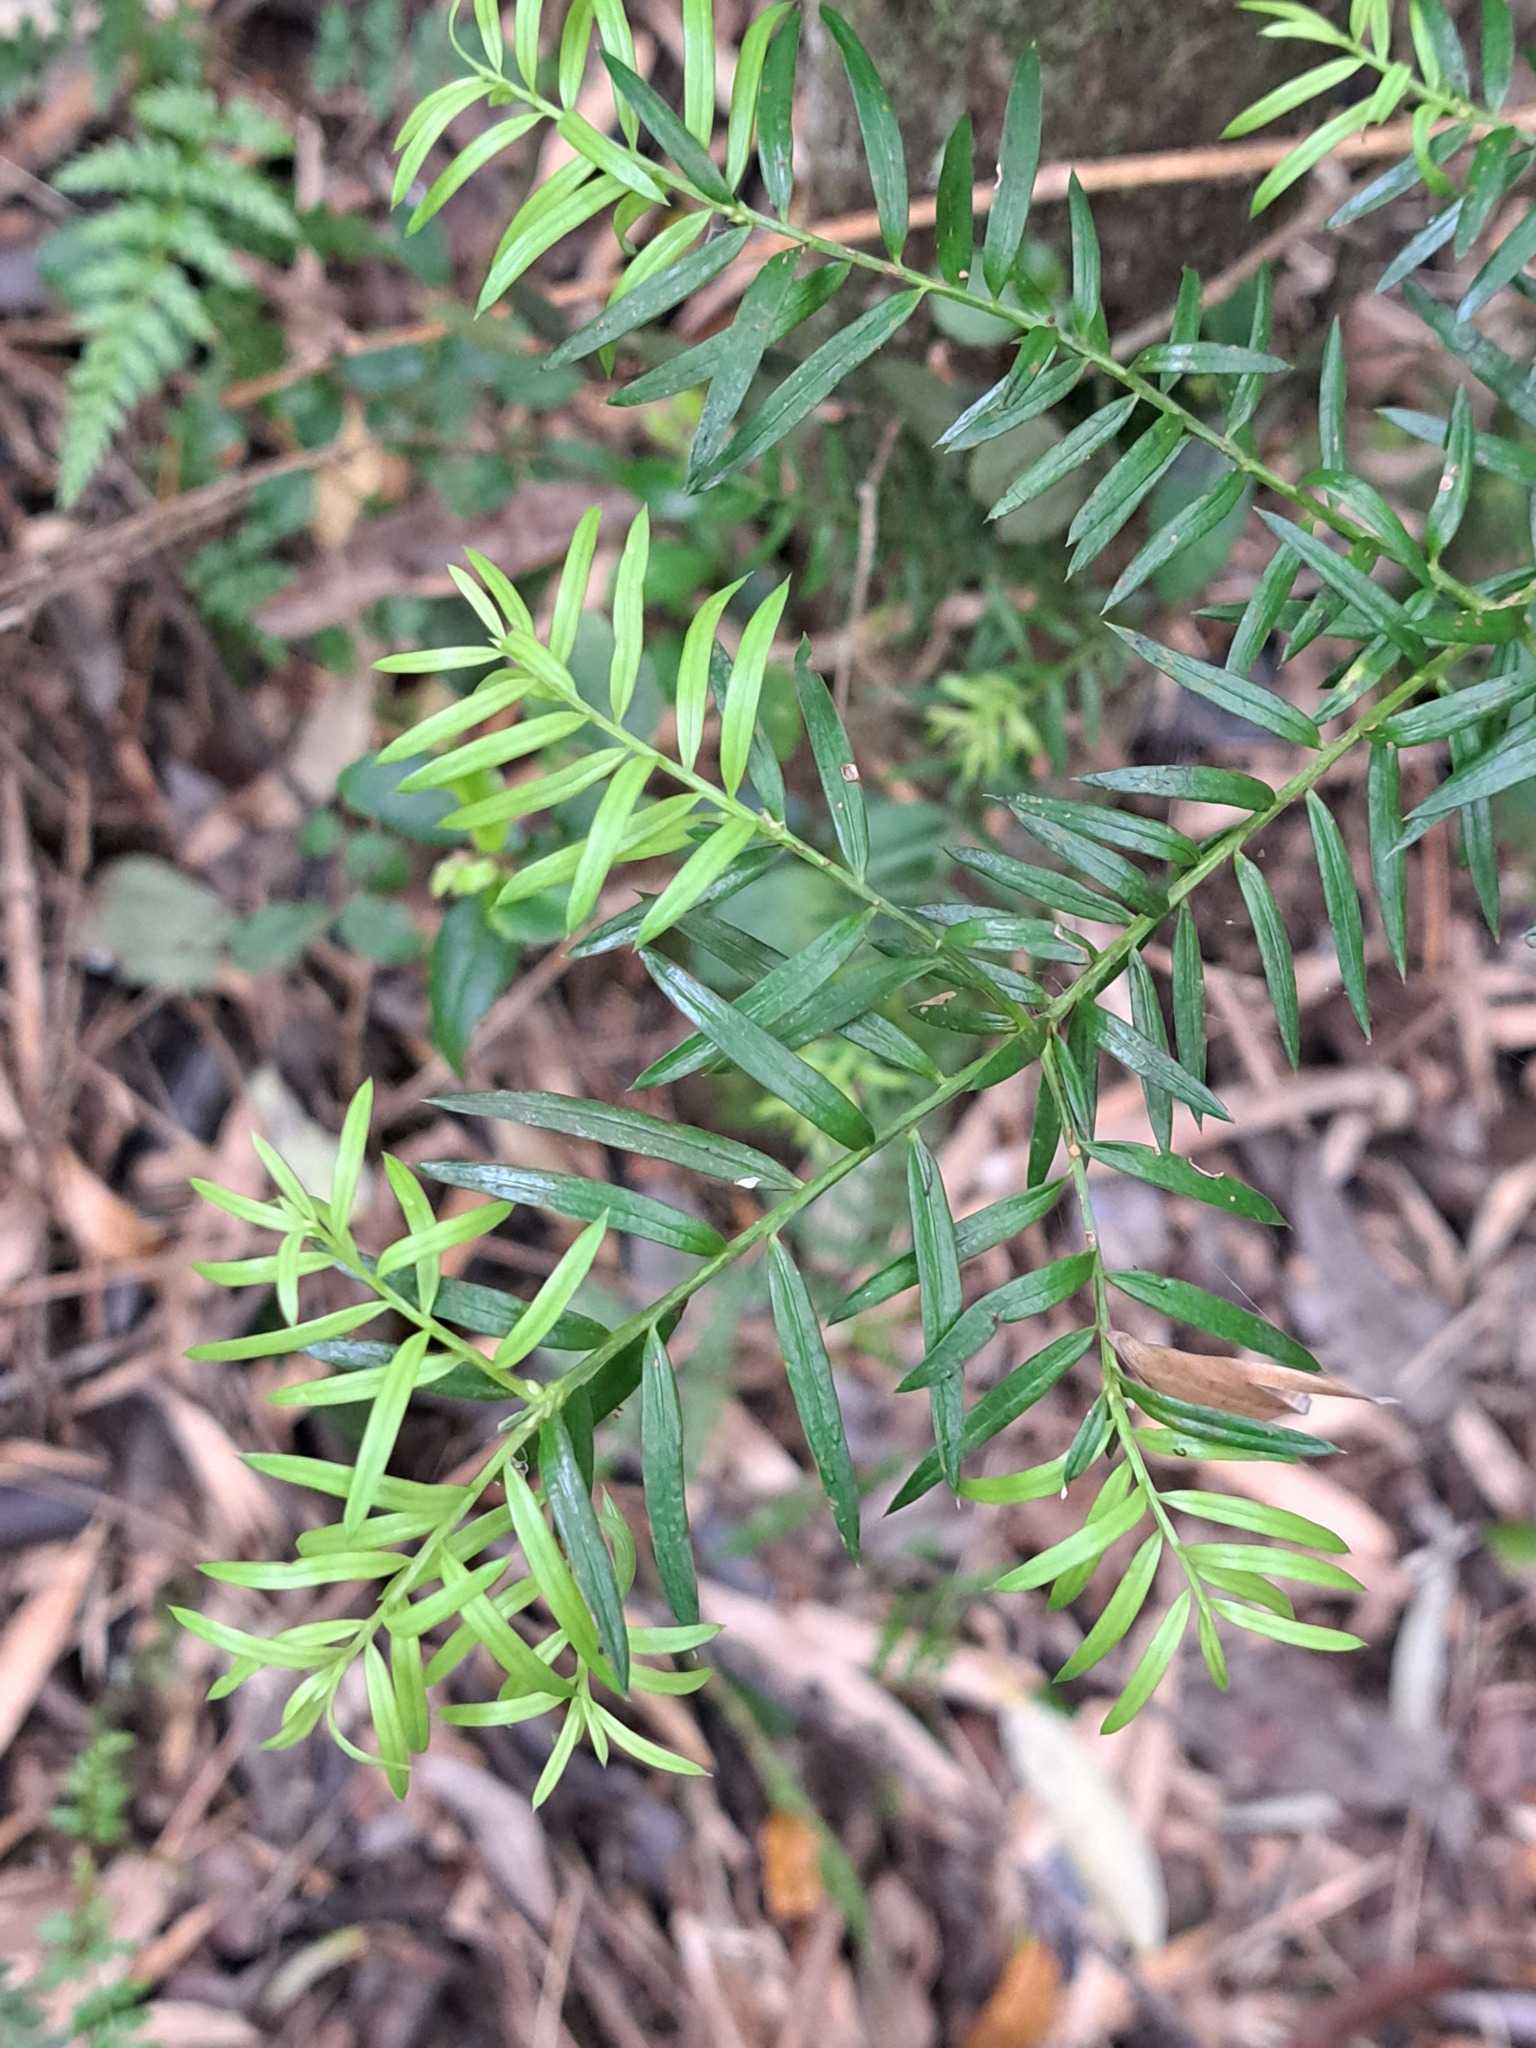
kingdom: Plantae
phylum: Tracheophyta
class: Pinopsida
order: Pinales
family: Podocarpaceae
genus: Saxegothaea
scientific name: Saxegothaea conspicua
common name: Prince albert's yew
